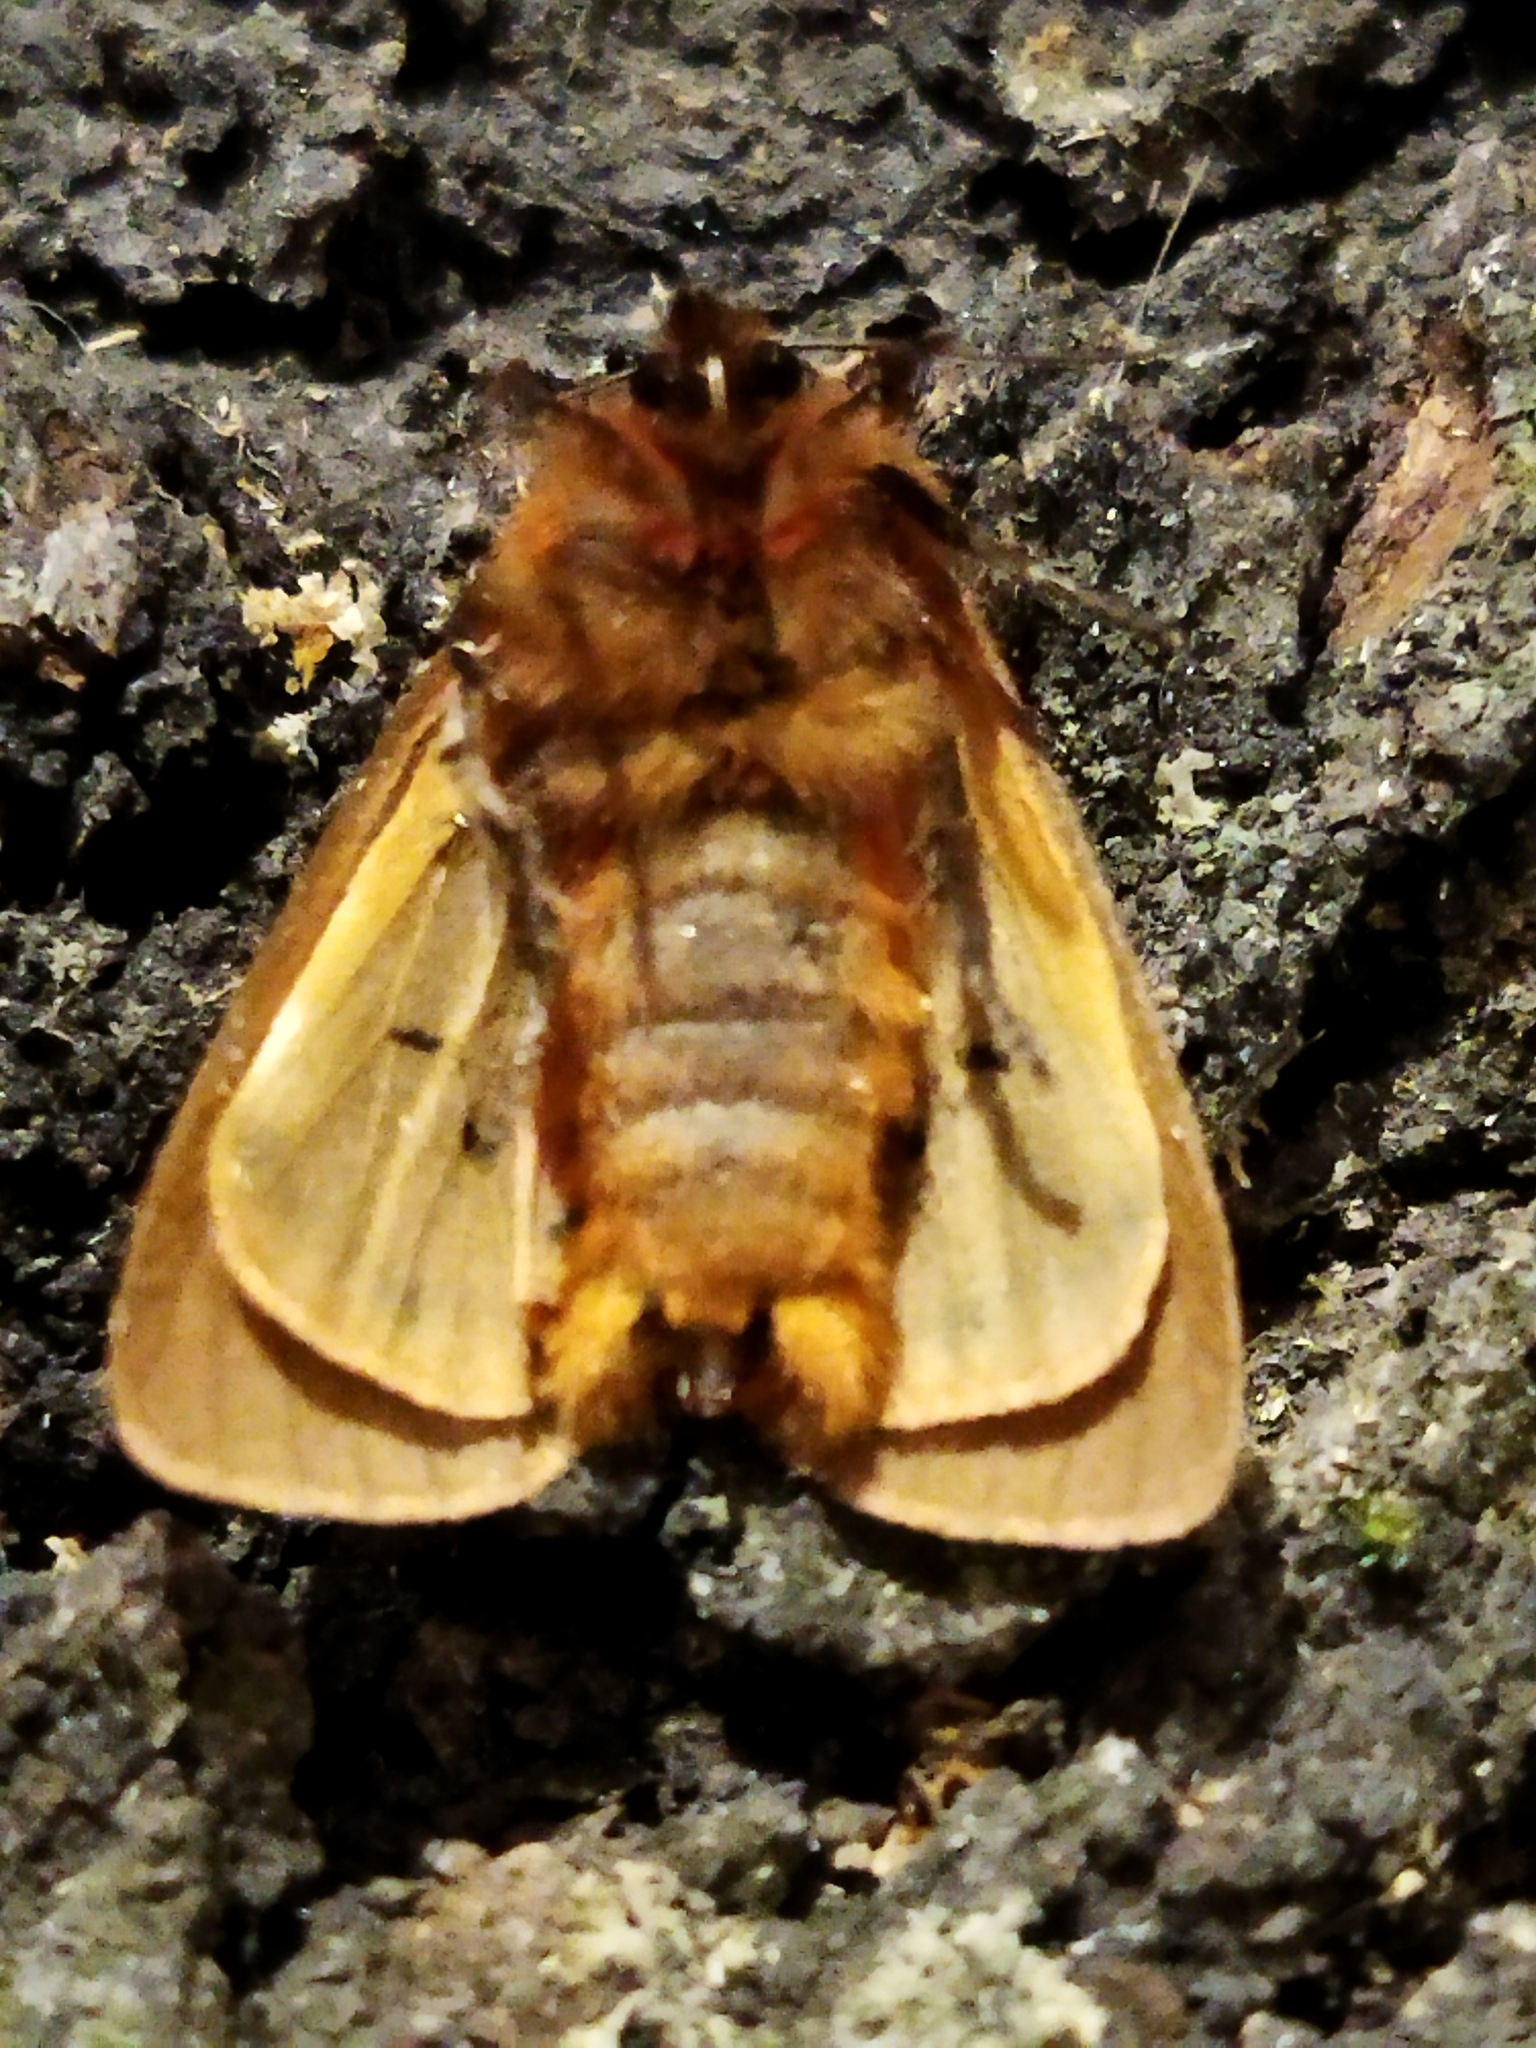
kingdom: Animalia
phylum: Arthropoda
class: Insecta
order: Lepidoptera
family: Erebidae
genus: Phragmatobia
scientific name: Phragmatobia fuliginosa
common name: Ruby tiger
